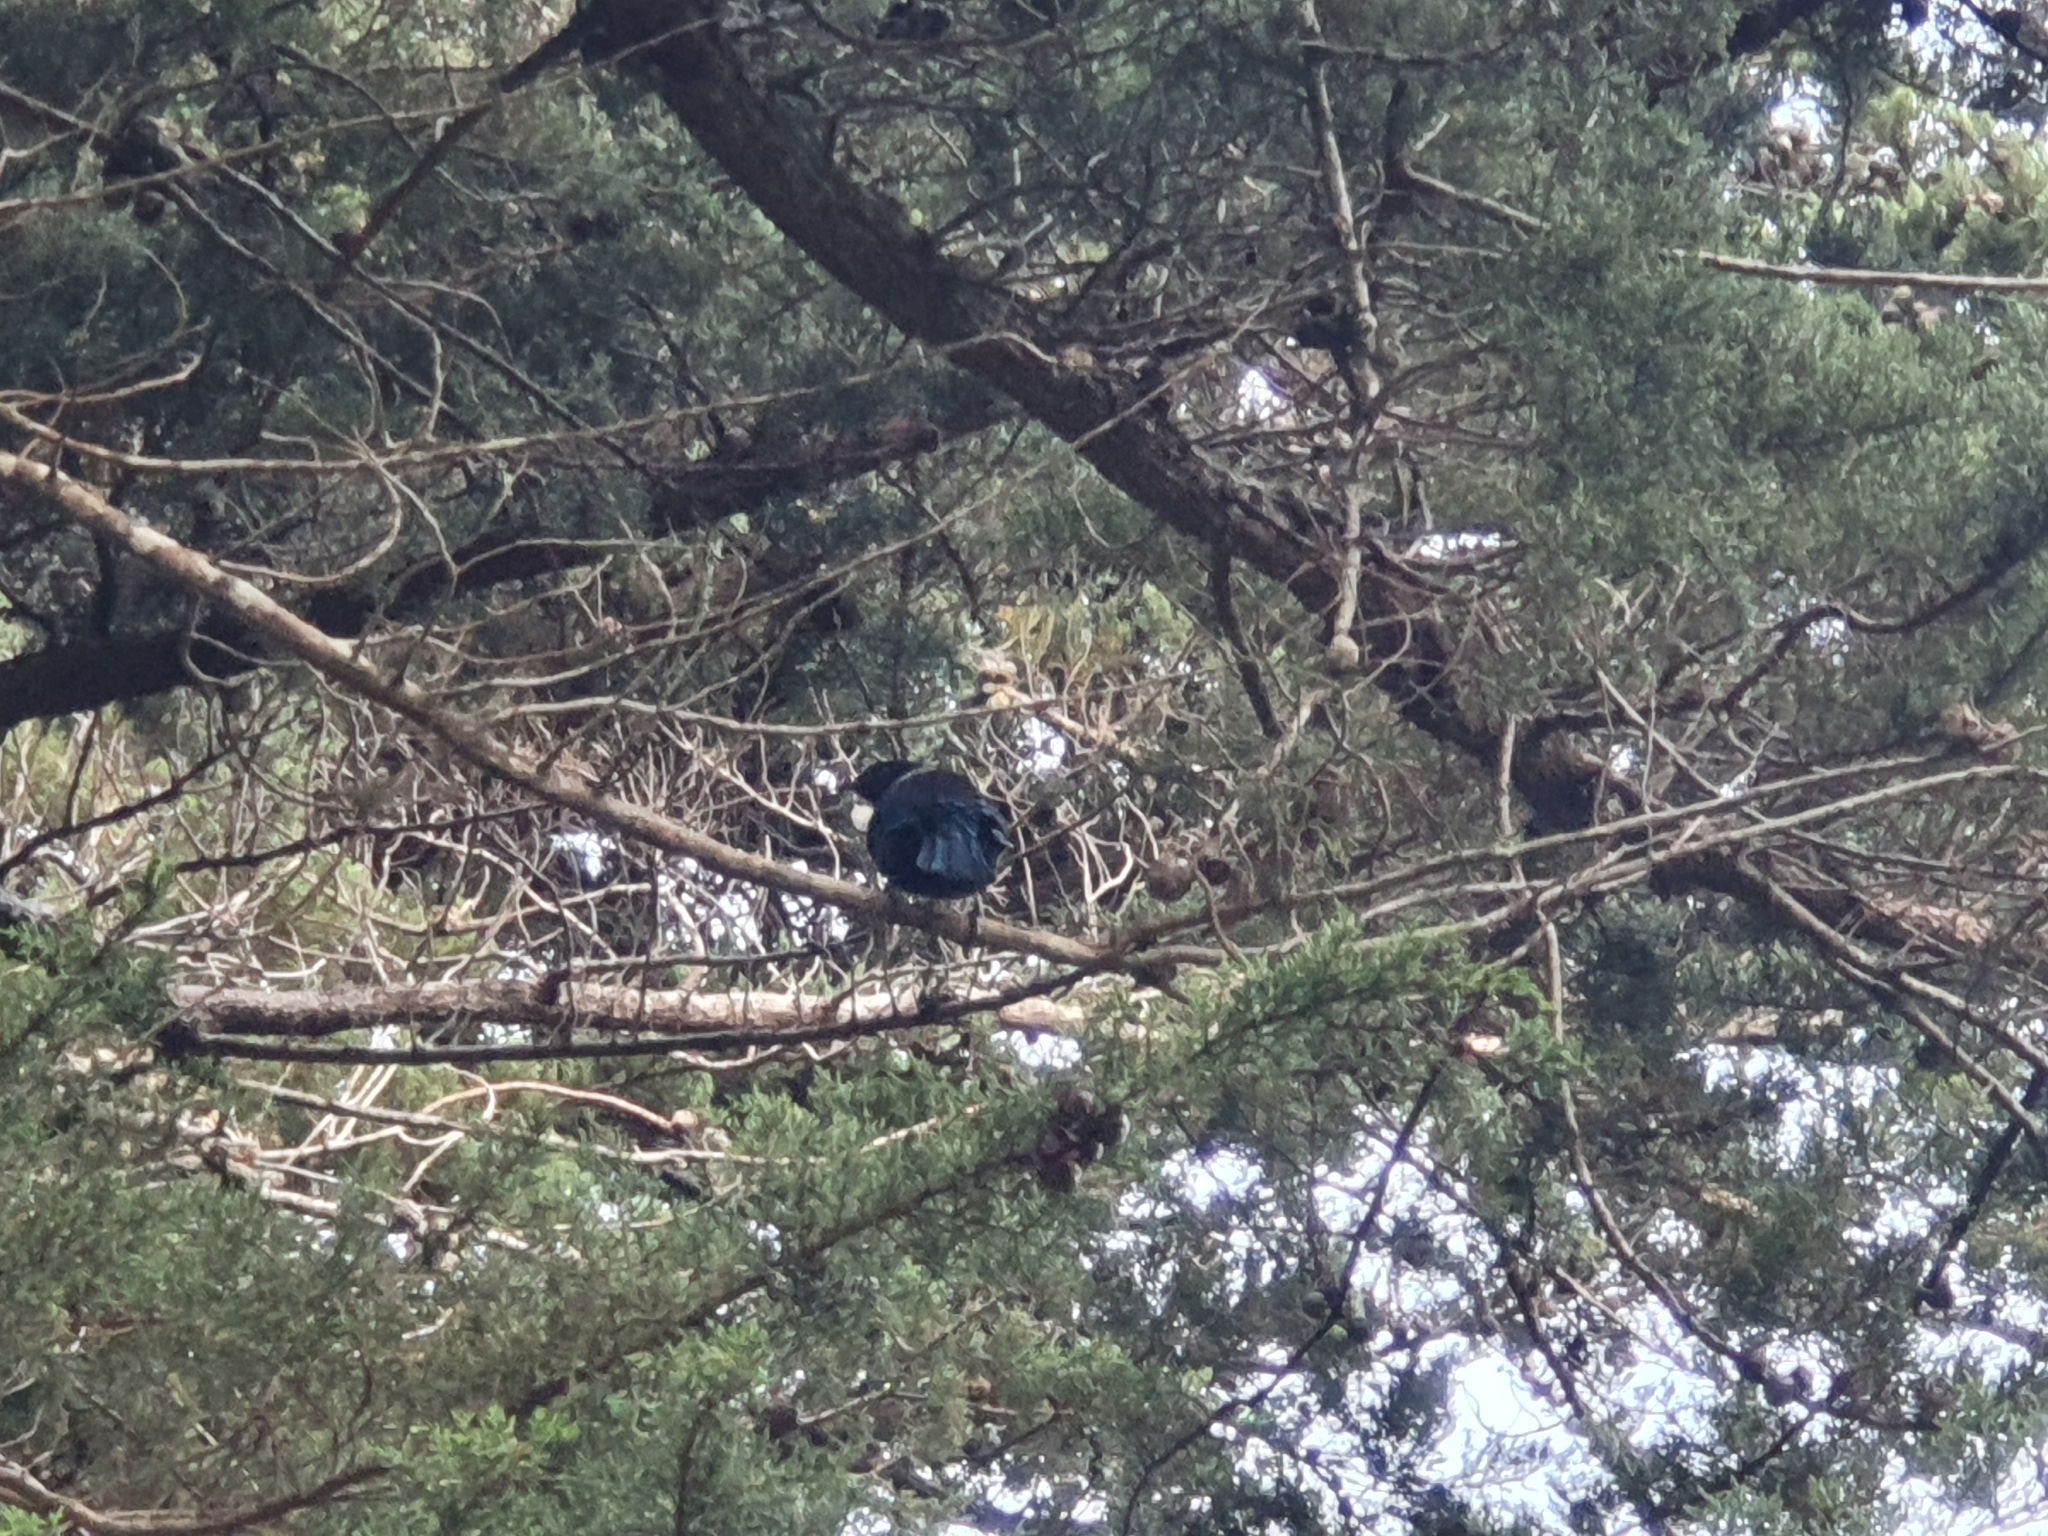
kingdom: Animalia
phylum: Chordata
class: Aves
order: Passeriformes
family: Meliphagidae
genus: Prosthemadera
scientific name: Prosthemadera novaeseelandiae
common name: Tui
